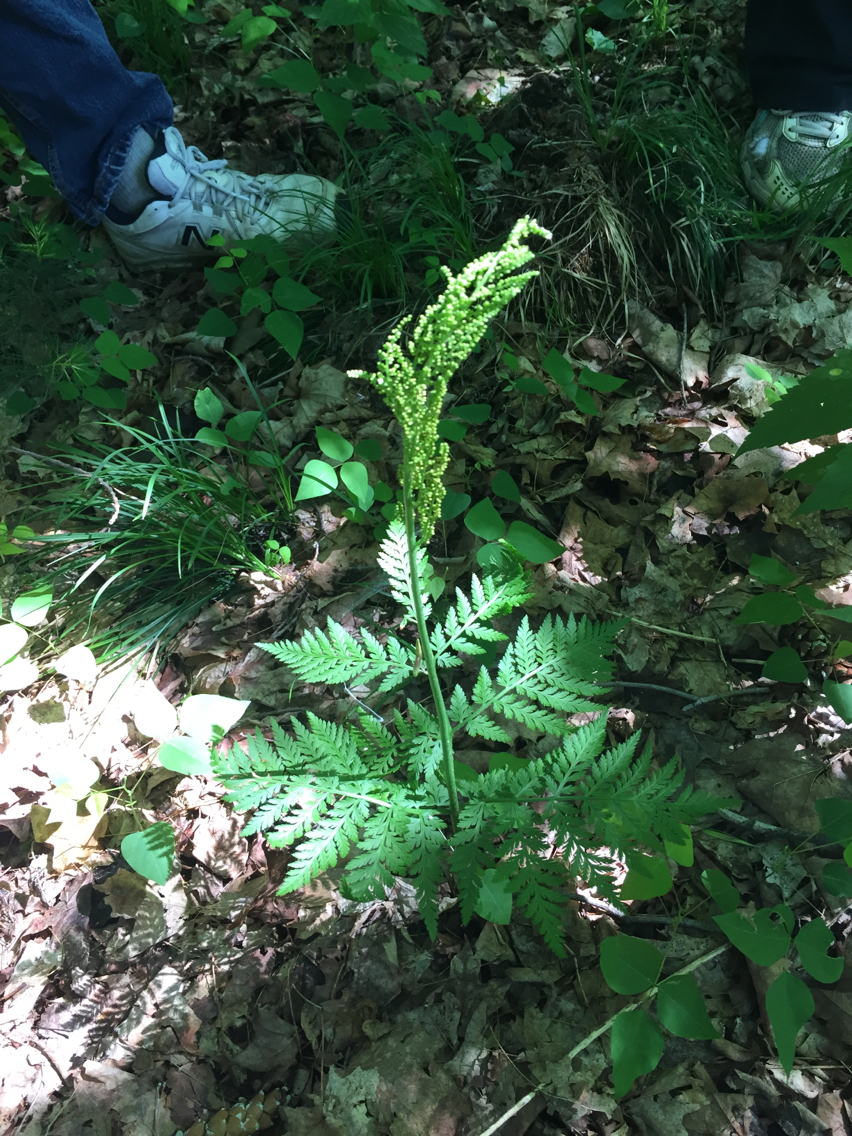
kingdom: Plantae
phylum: Tracheophyta
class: Polypodiopsida
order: Ophioglossales
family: Ophioglossaceae
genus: Botrypus
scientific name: Botrypus virginianus
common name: Common grapefern
